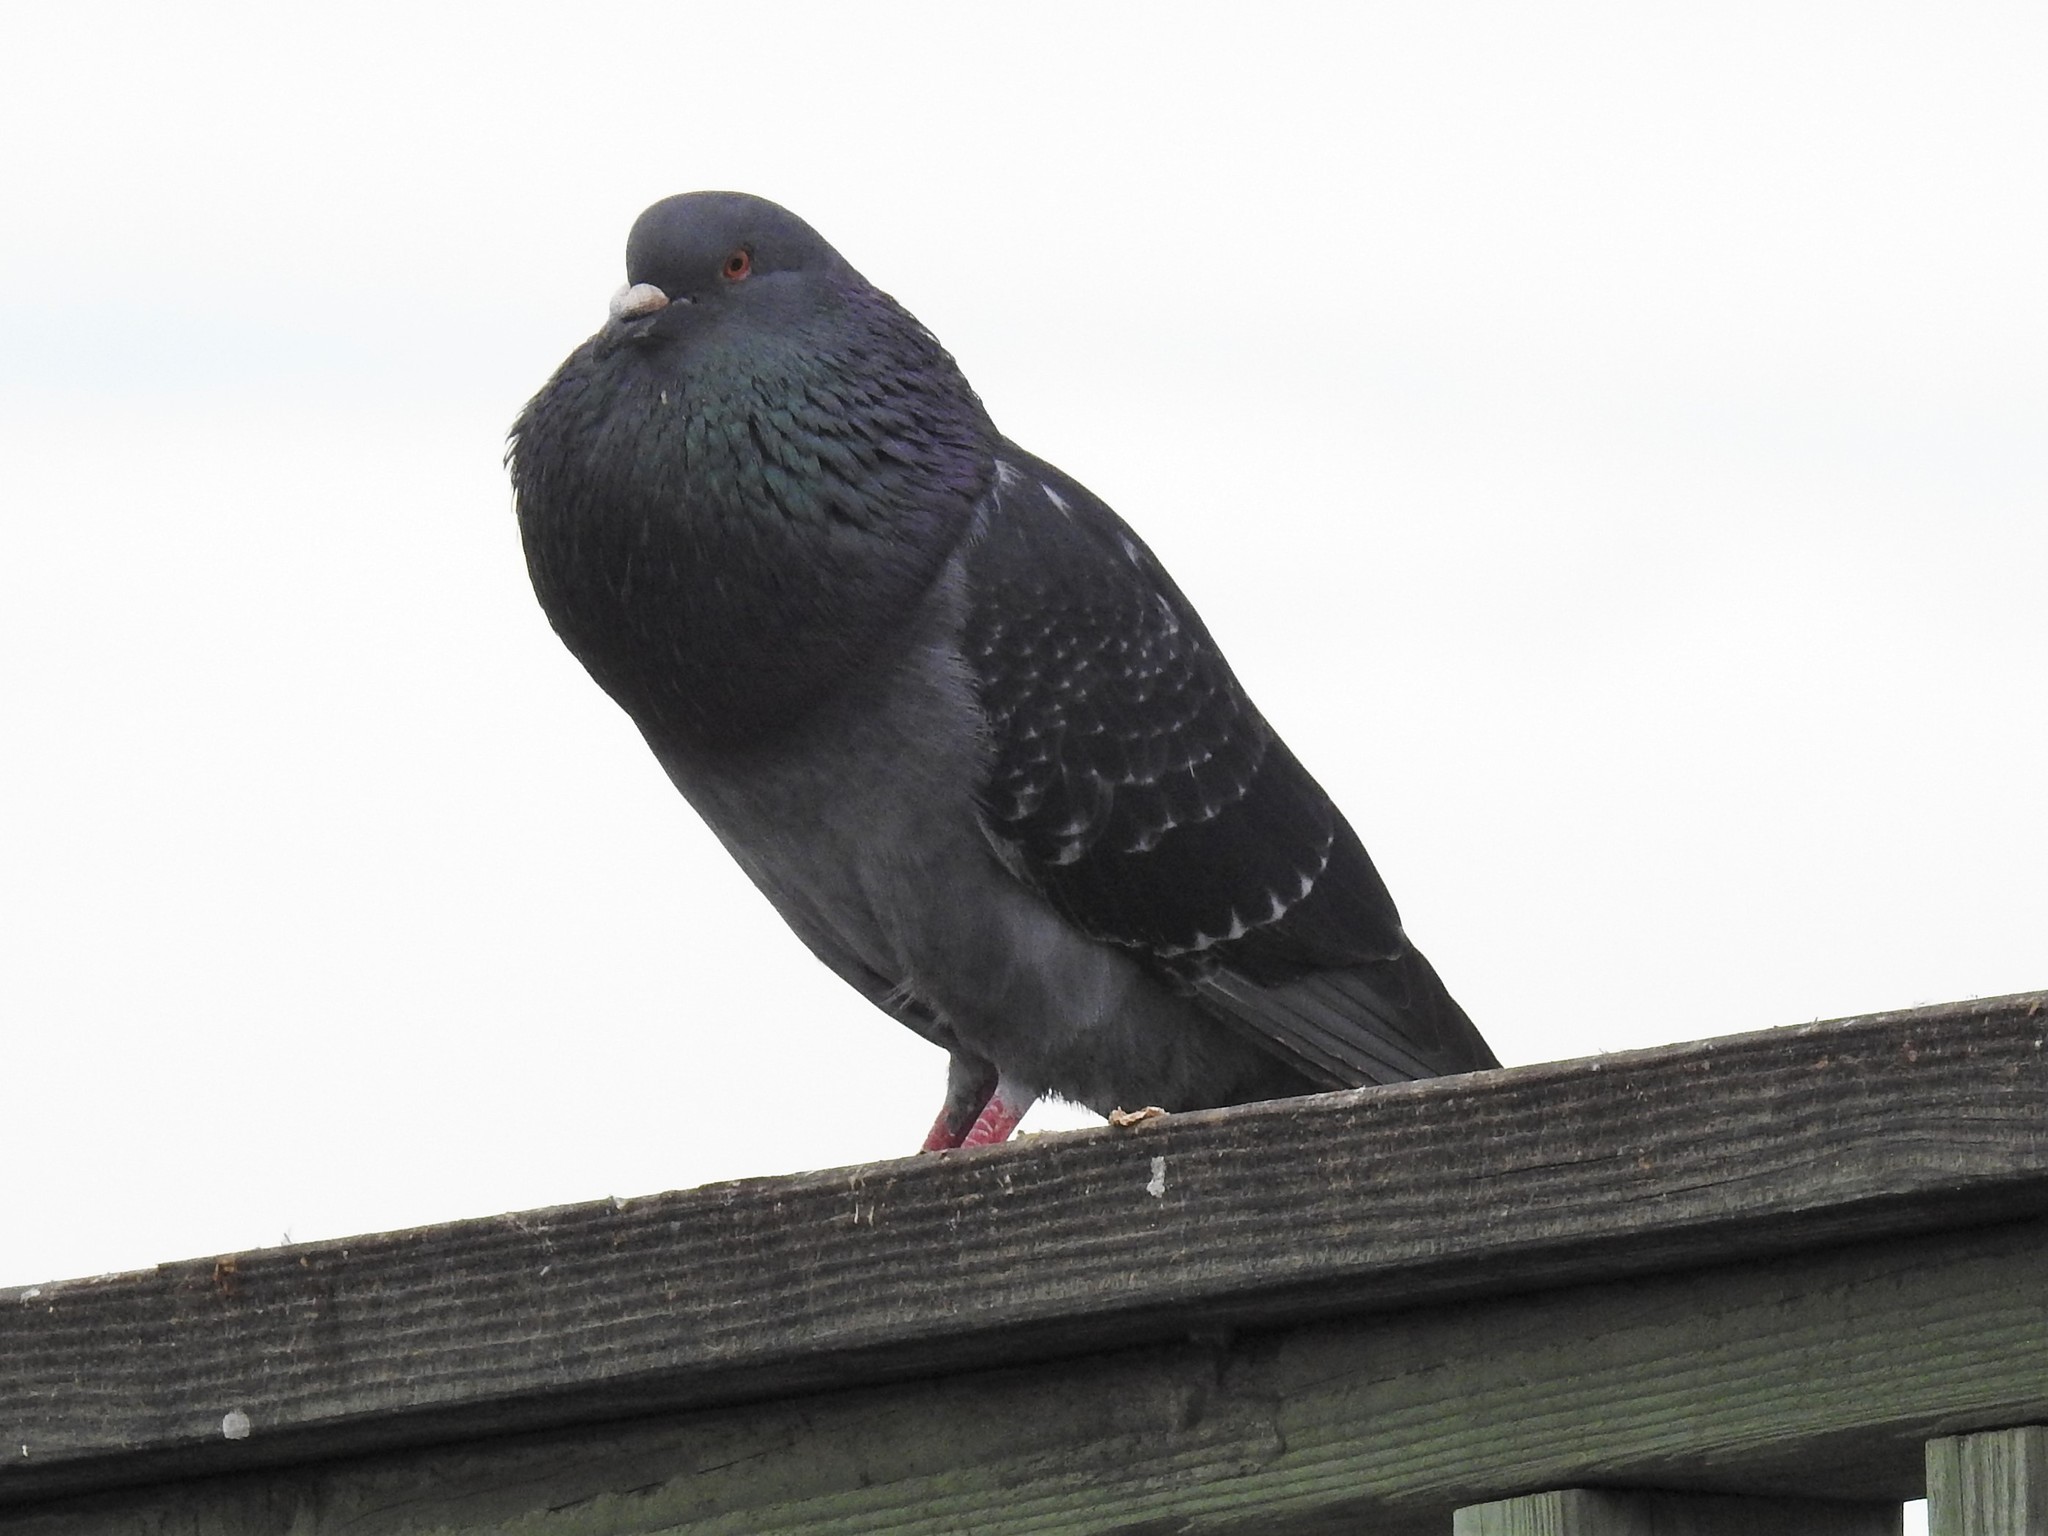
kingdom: Animalia
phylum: Chordata
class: Aves
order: Columbiformes
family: Columbidae
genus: Columba
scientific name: Columba livia
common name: Rock pigeon
